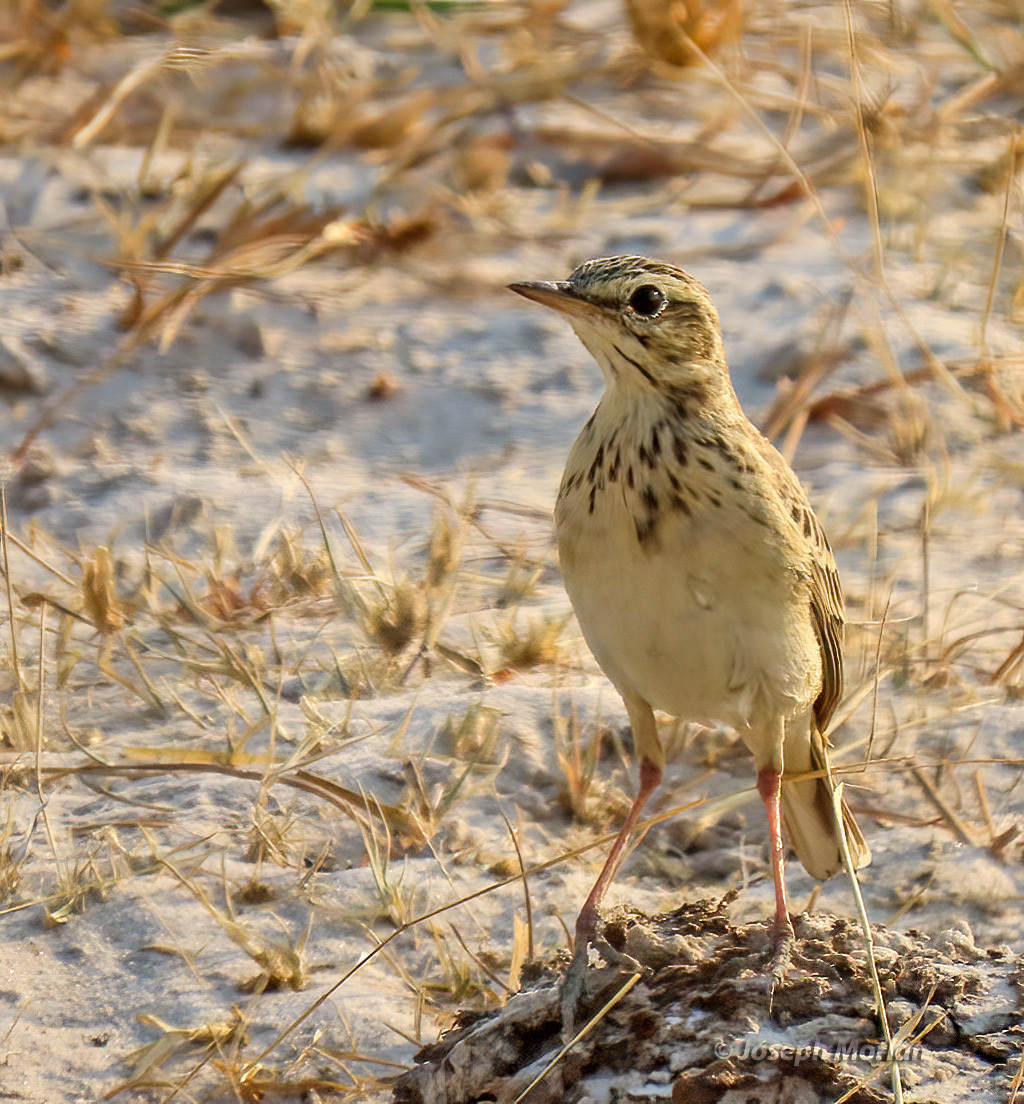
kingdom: Animalia
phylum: Chordata
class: Aves
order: Passeriformes
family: Motacillidae
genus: Anthus
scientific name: Anthus cinnamomeus
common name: African pipit
